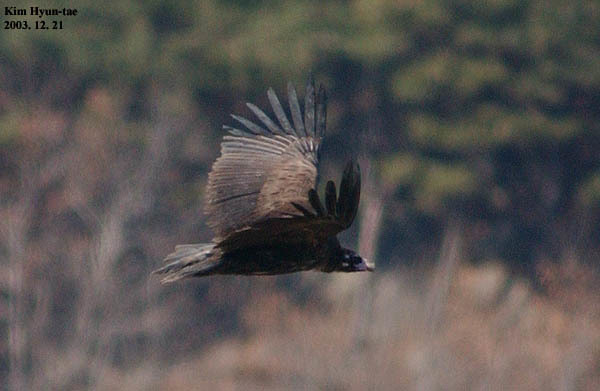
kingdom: Animalia
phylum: Chordata
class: Aves
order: Accipitriformes
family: Accipitridae
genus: Aegypius
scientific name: Aegypius monachus
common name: Cinereous vulture
